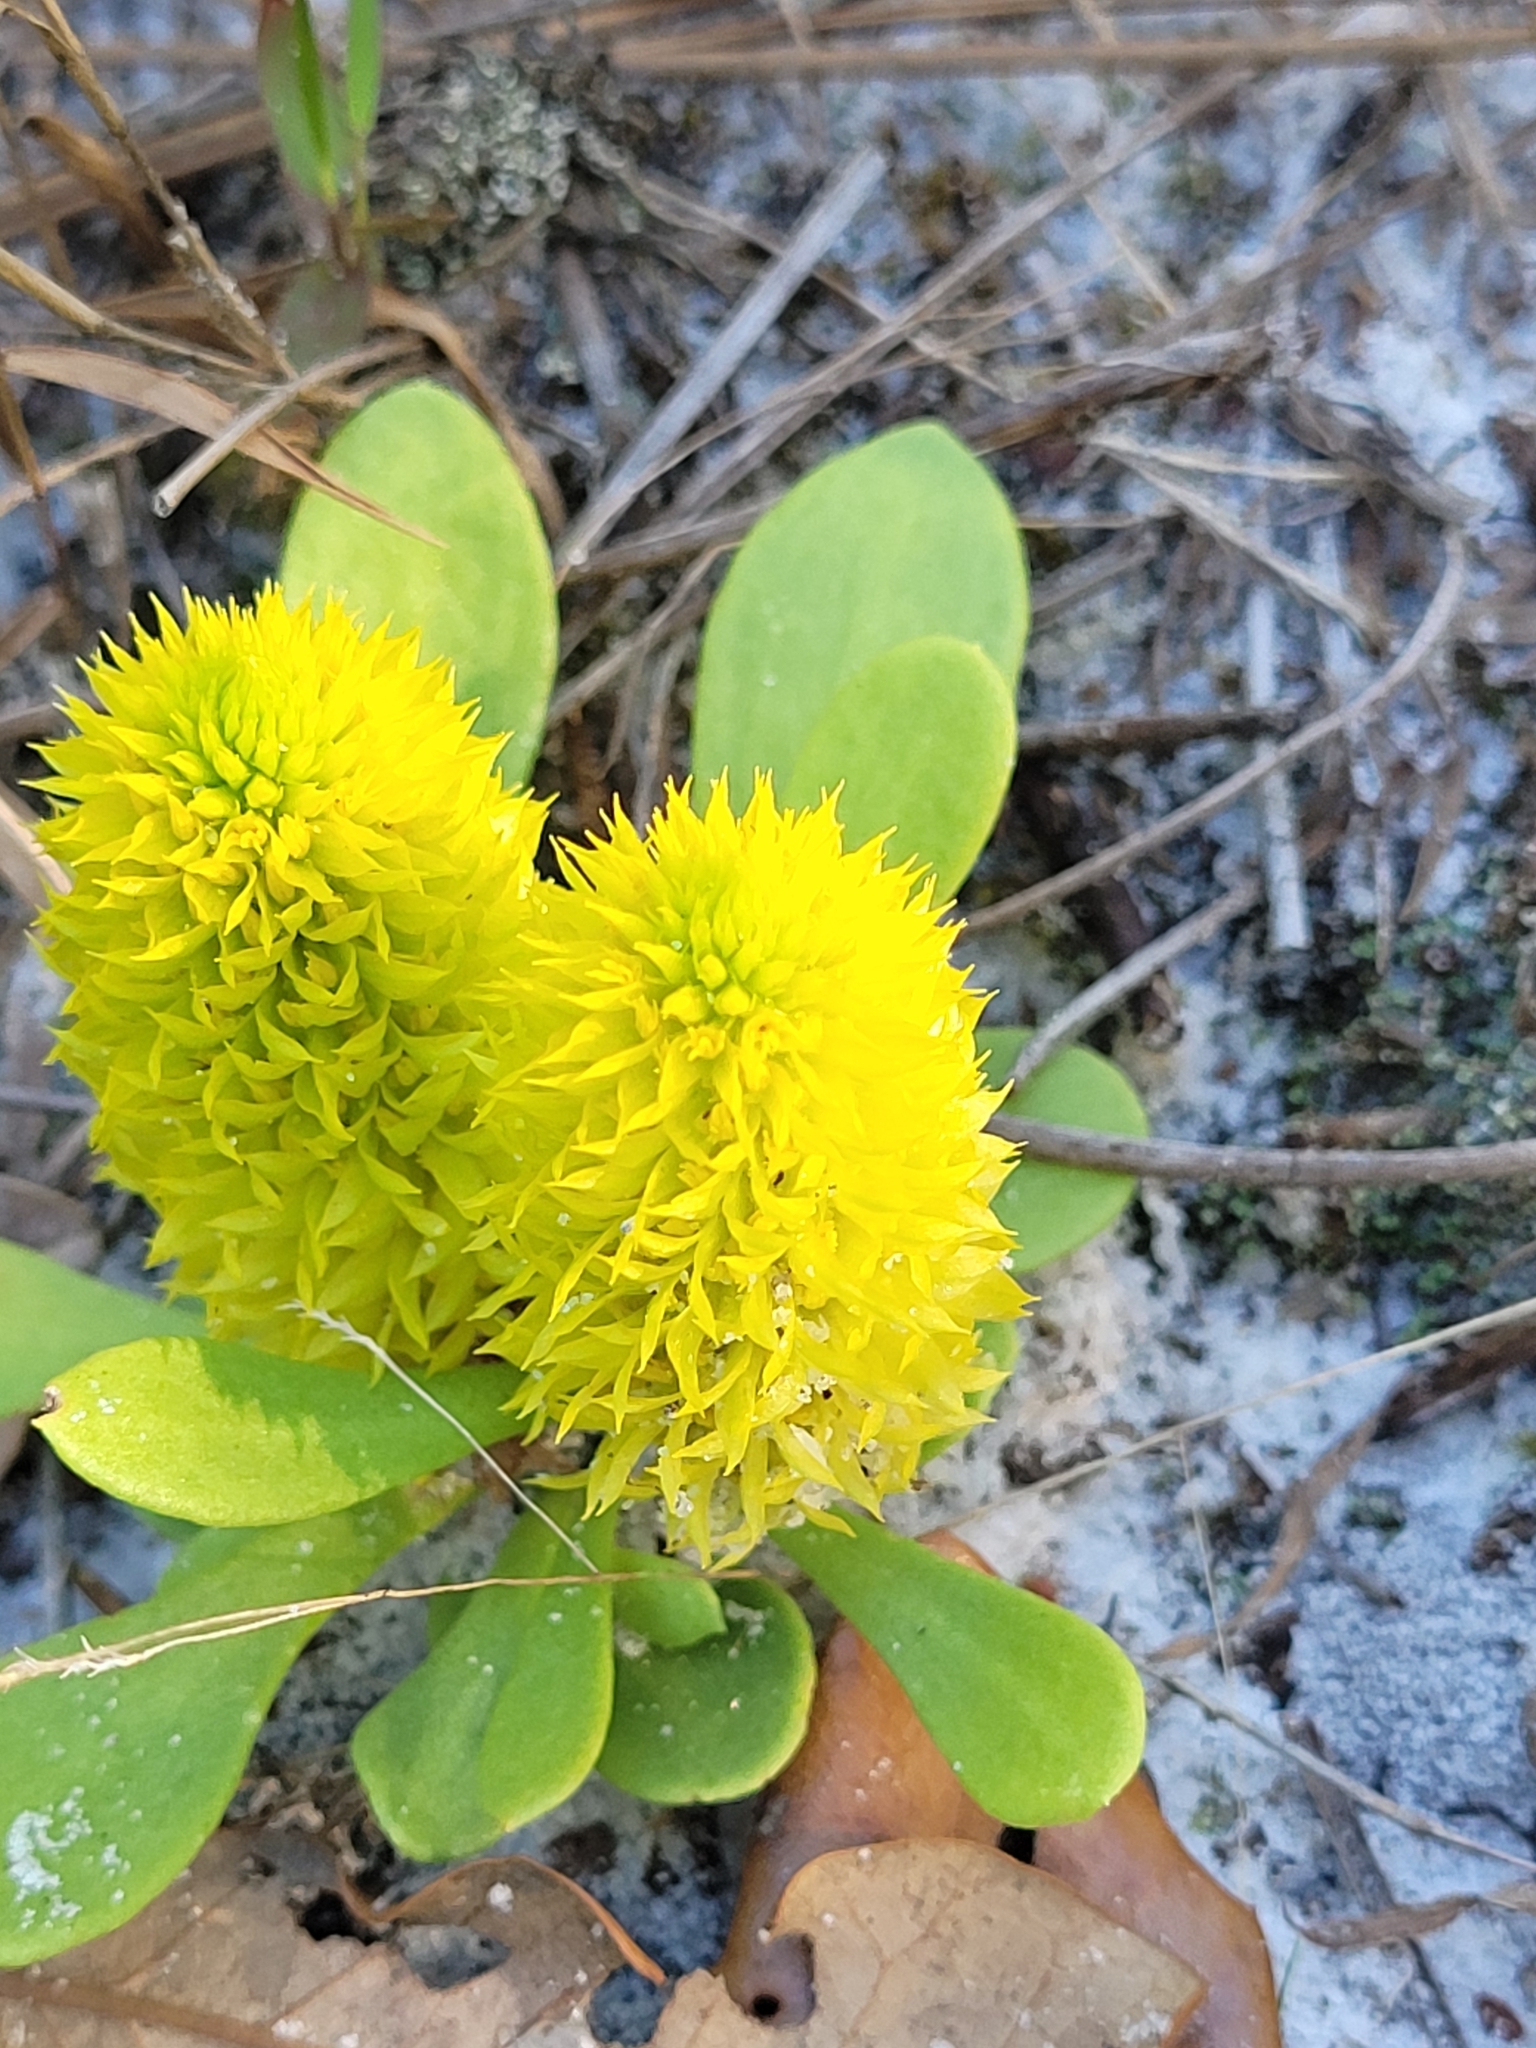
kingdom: Plantae
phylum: Tracheophyta
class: Magnoliopsida
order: Fabales
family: Polygalaceae
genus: Polygala
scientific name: Polygala nana
